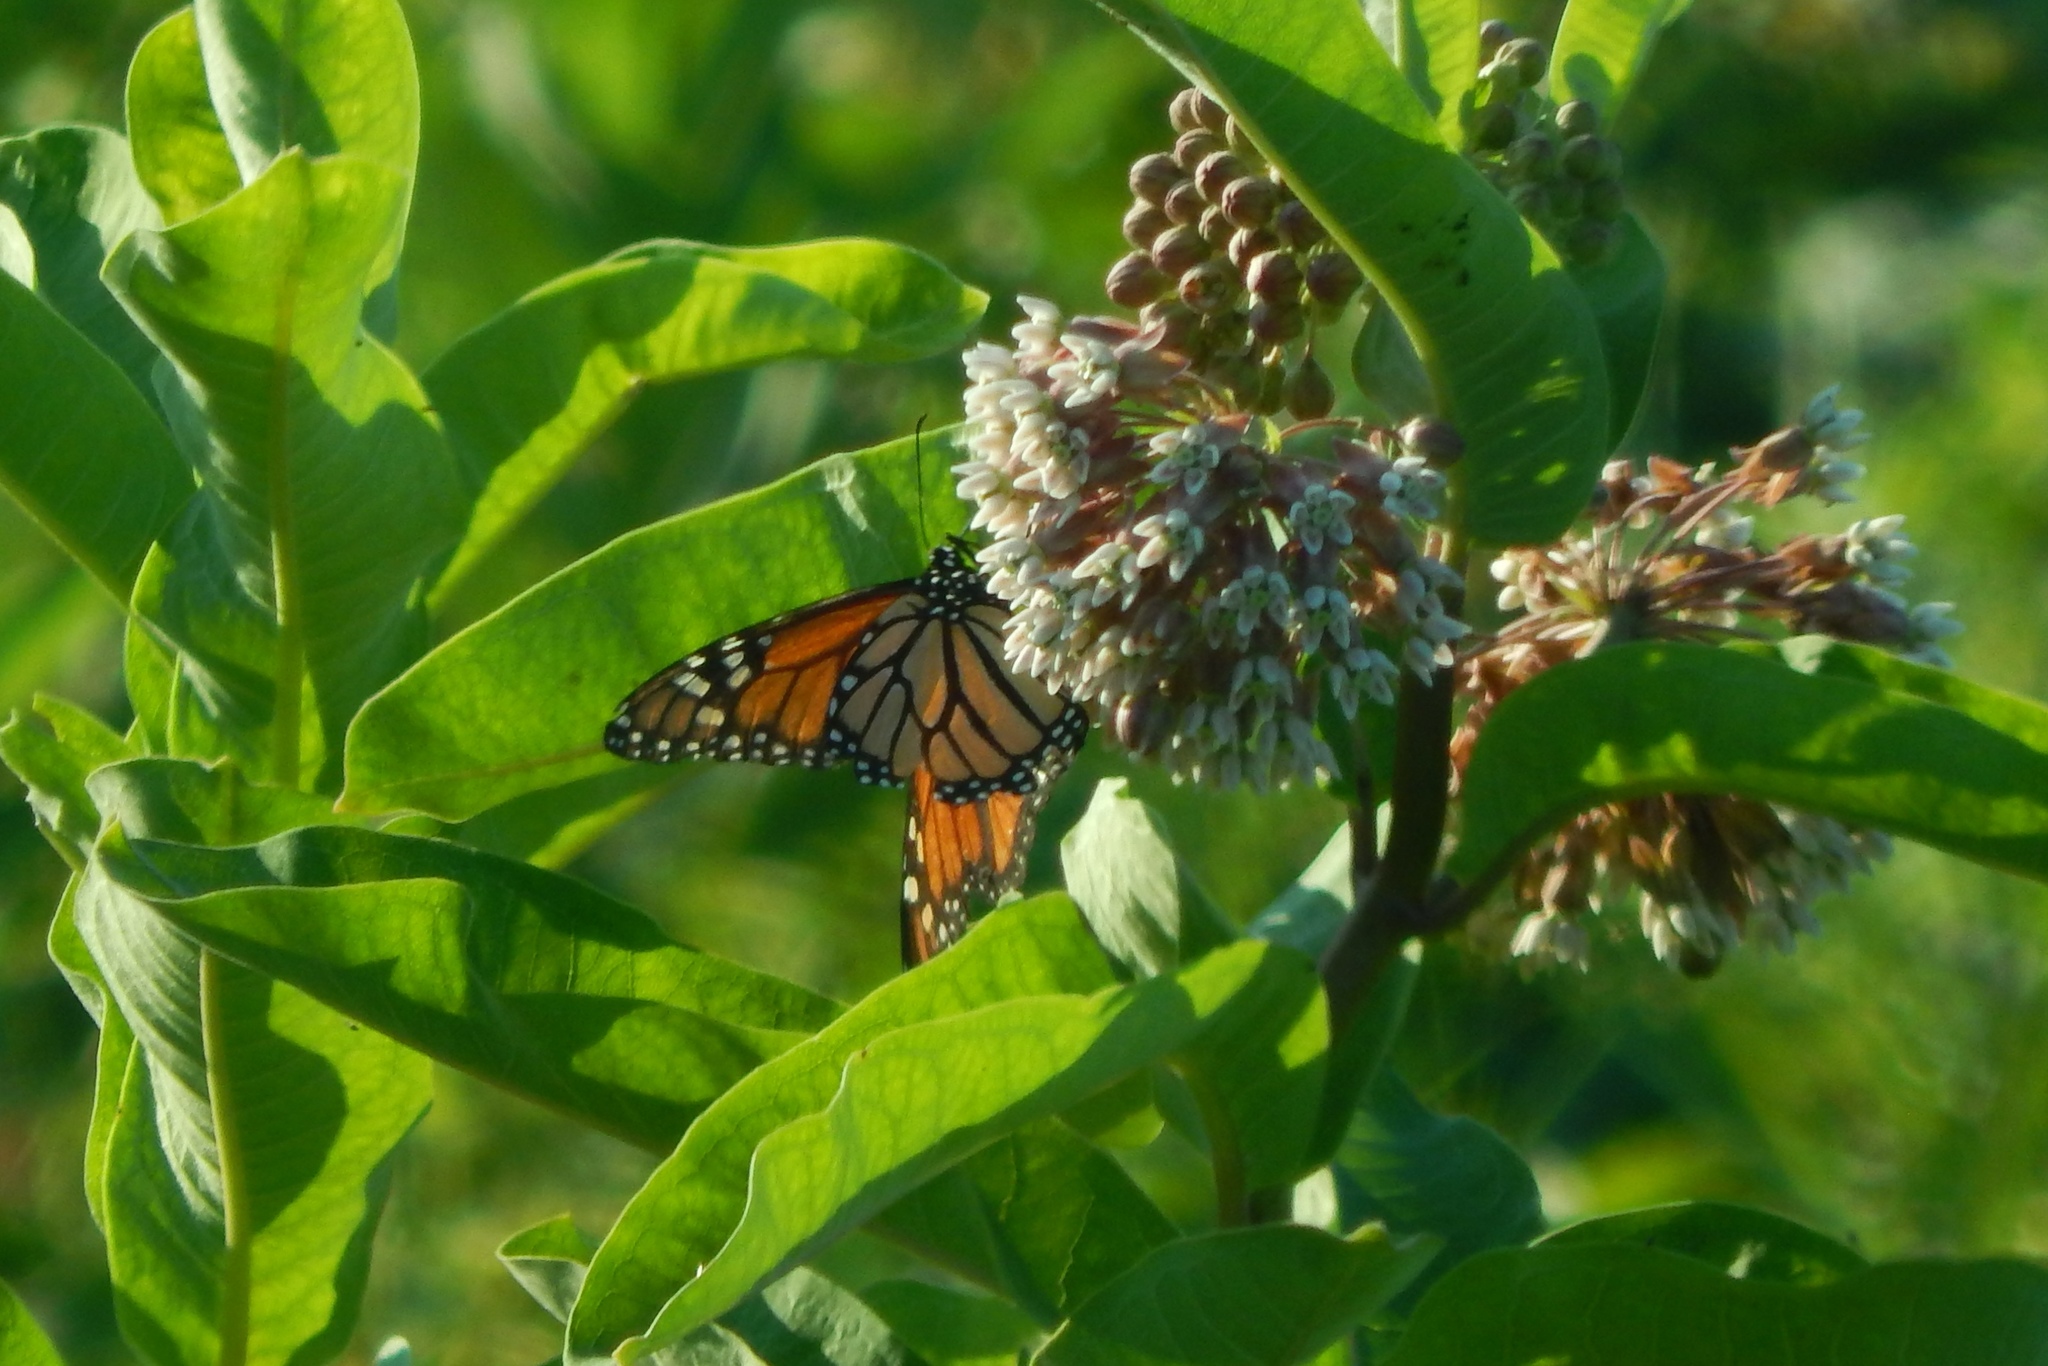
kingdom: Animalia
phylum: Arthropoda
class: Insecta
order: Lepidoptera
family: Nymphalidae
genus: Danaus
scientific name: Danaus plexippus
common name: Monarch
